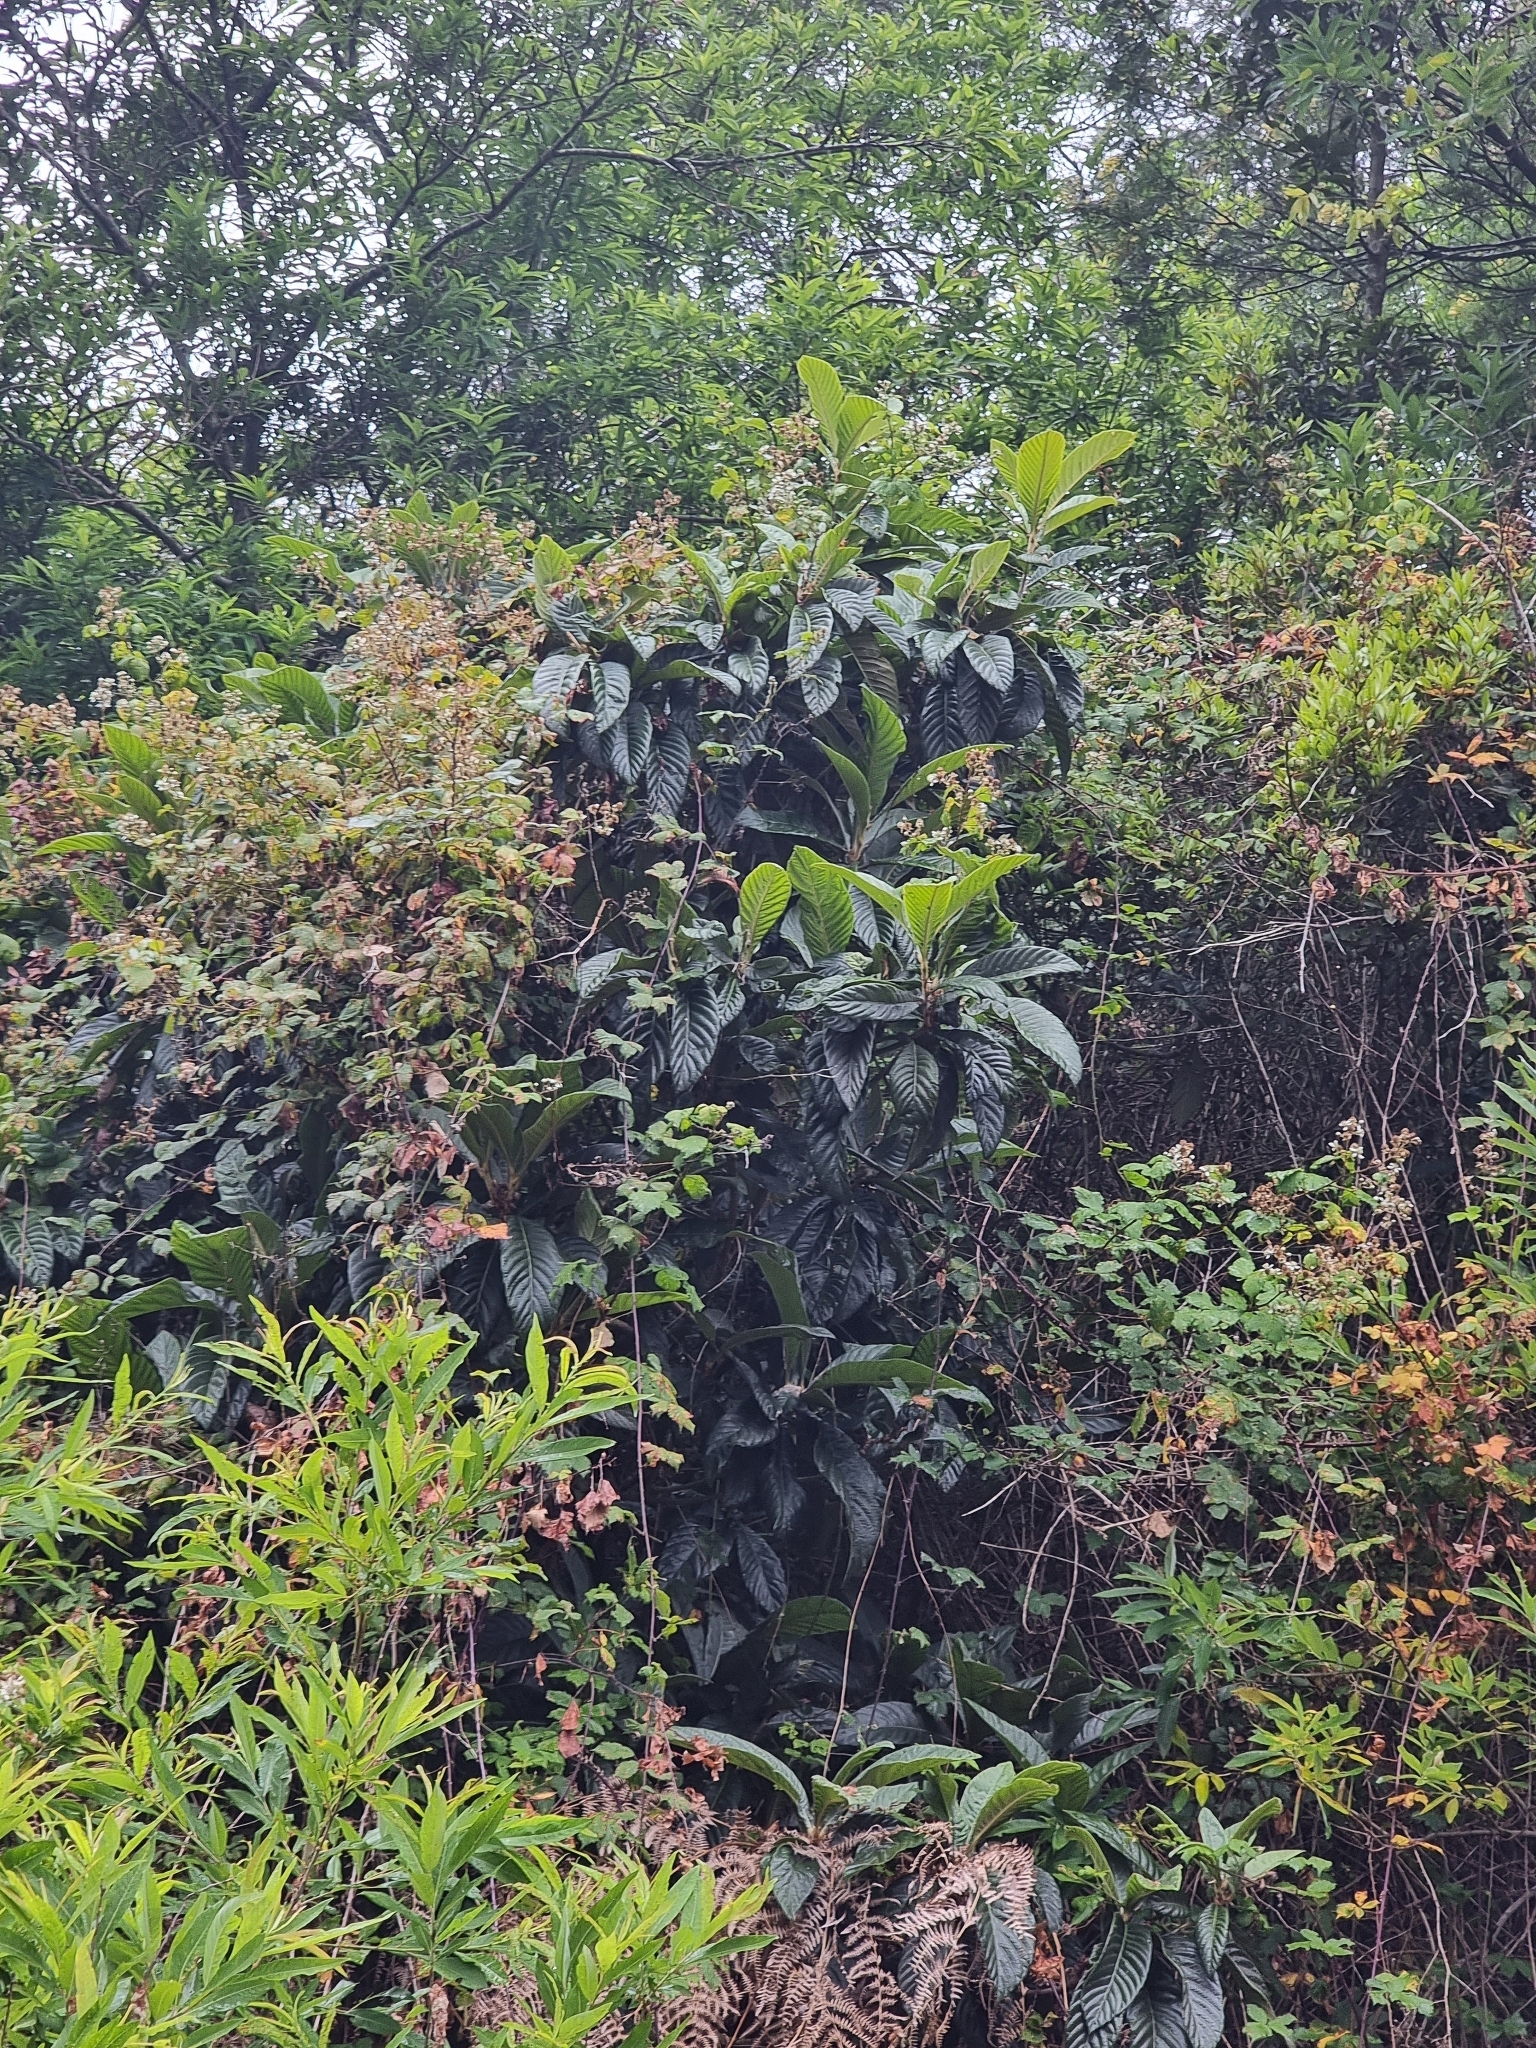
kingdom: Plantae
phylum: Tracheophyta
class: Magnoliopsida
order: Rosales
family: Rosaceae
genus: Rhaphiolepis
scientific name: Rhaphiolepis bibas
